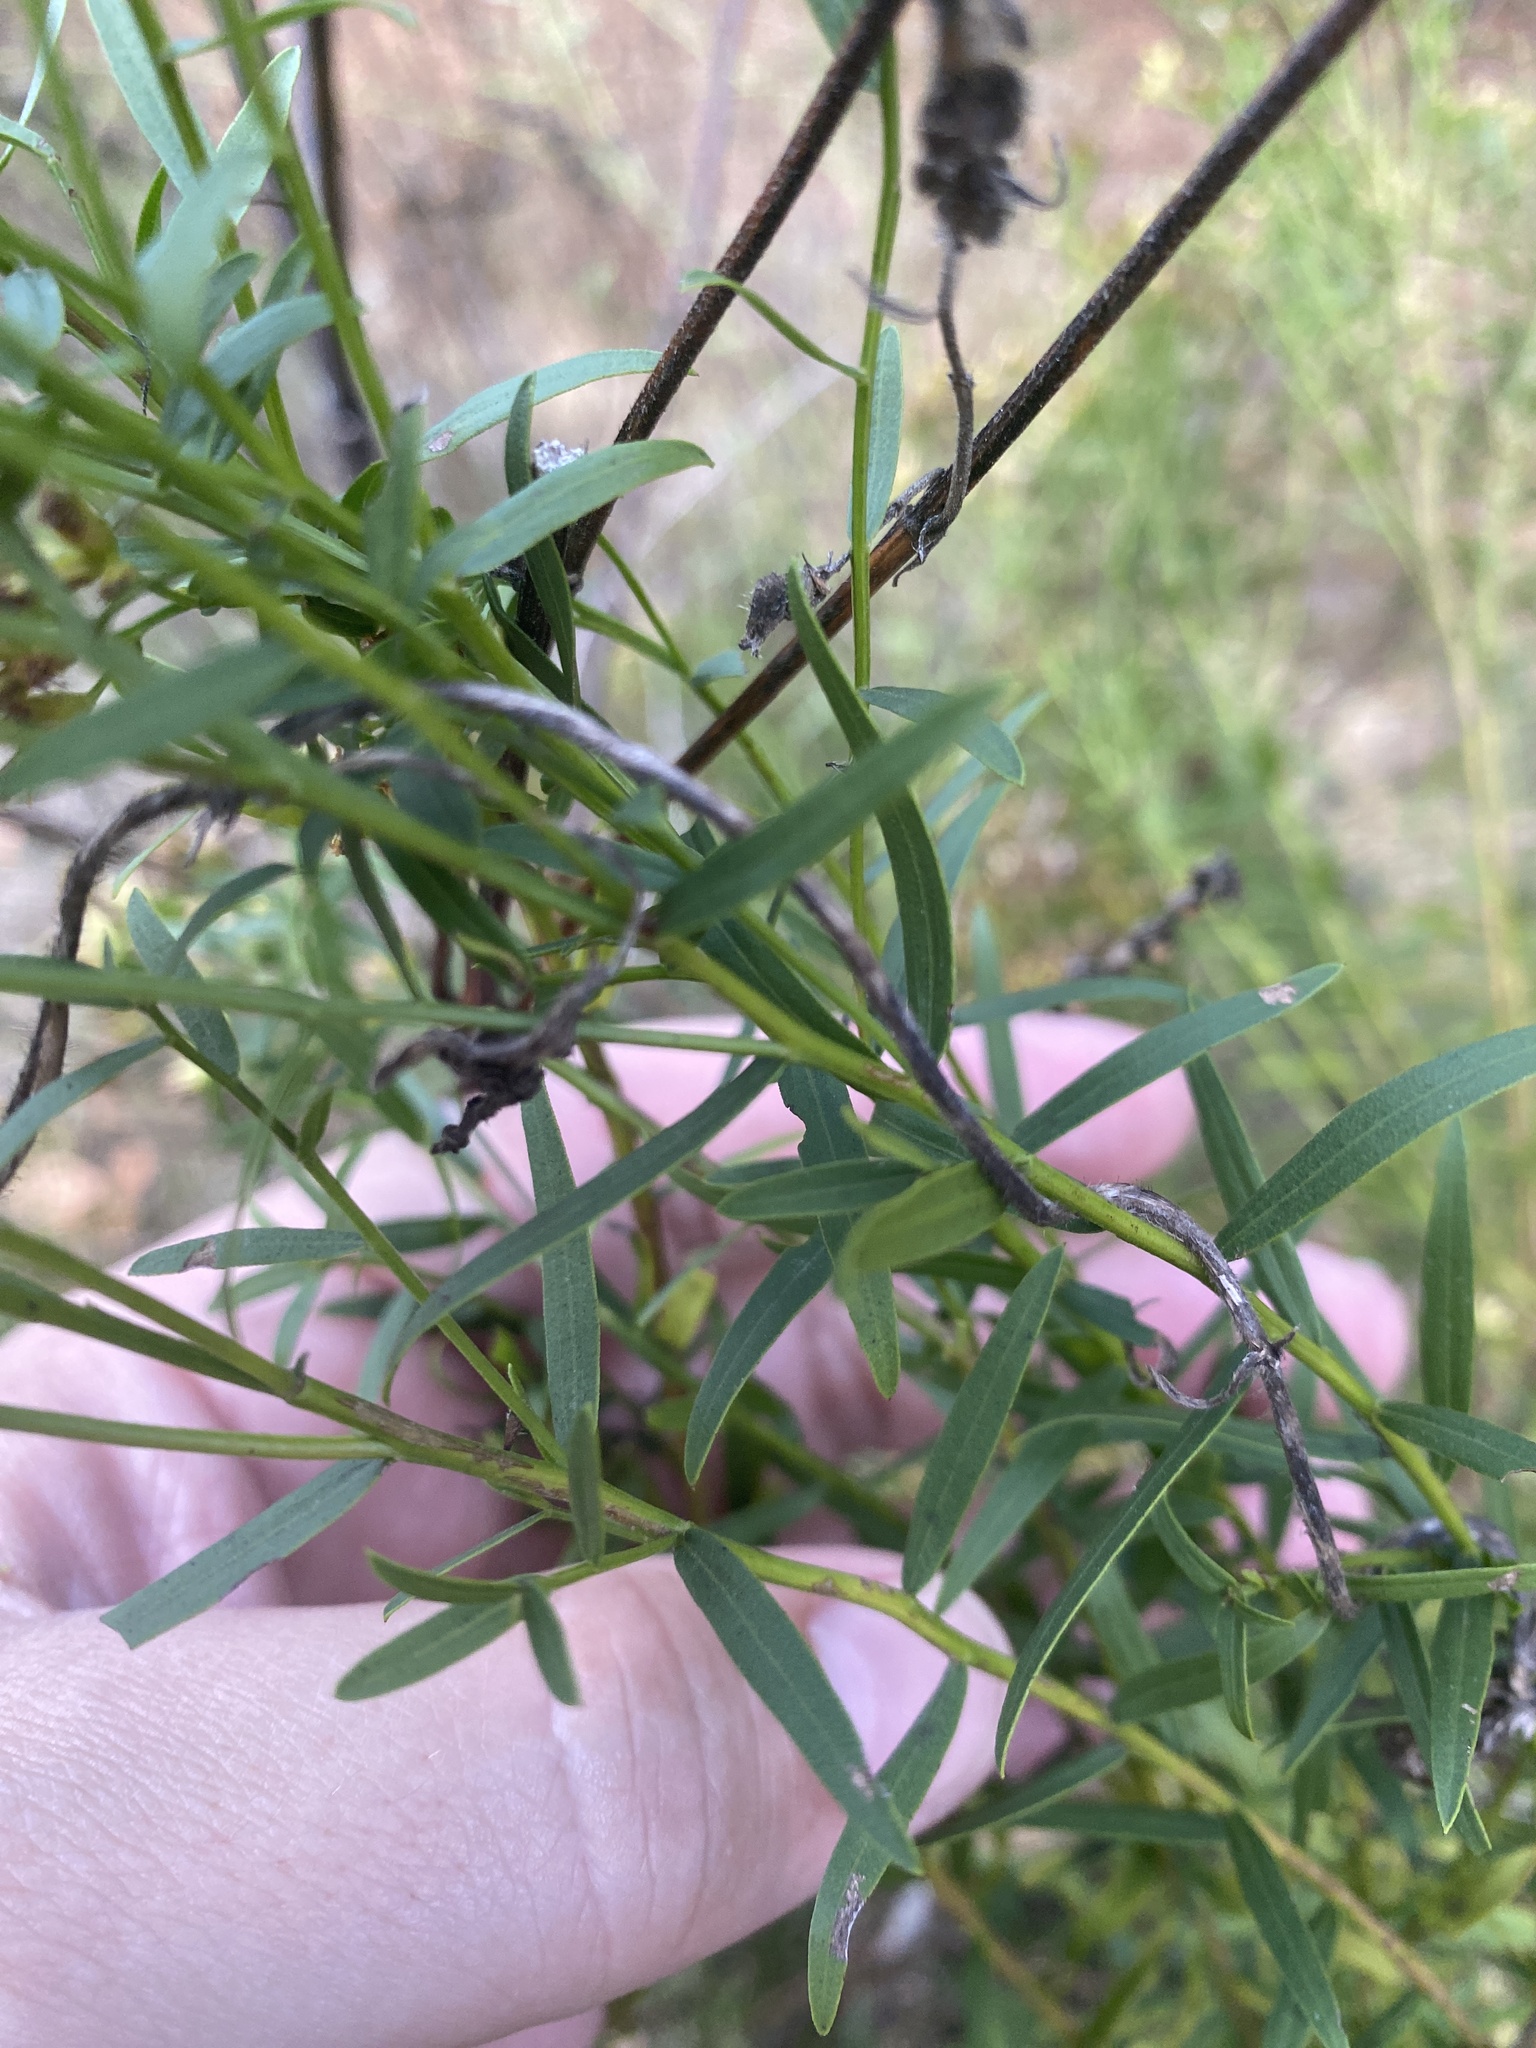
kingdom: Plantae
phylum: Tracheophyta
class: Magnoliopsida
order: Asterales
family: Asteraceae
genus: Euthamia
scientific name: Euthamia leptocephala
